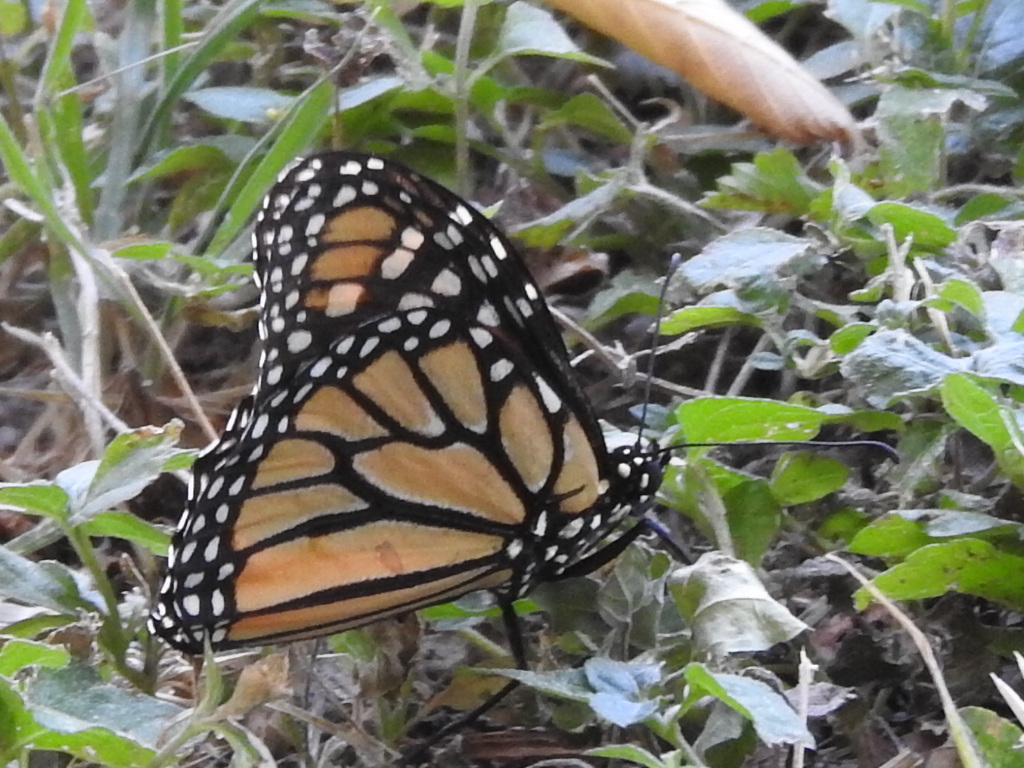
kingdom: Animalia
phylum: Arthropoda
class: Insecta
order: Lepidoptera
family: Nymphalidae
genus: Danaus
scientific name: Danaus plexippus
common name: Monarch
